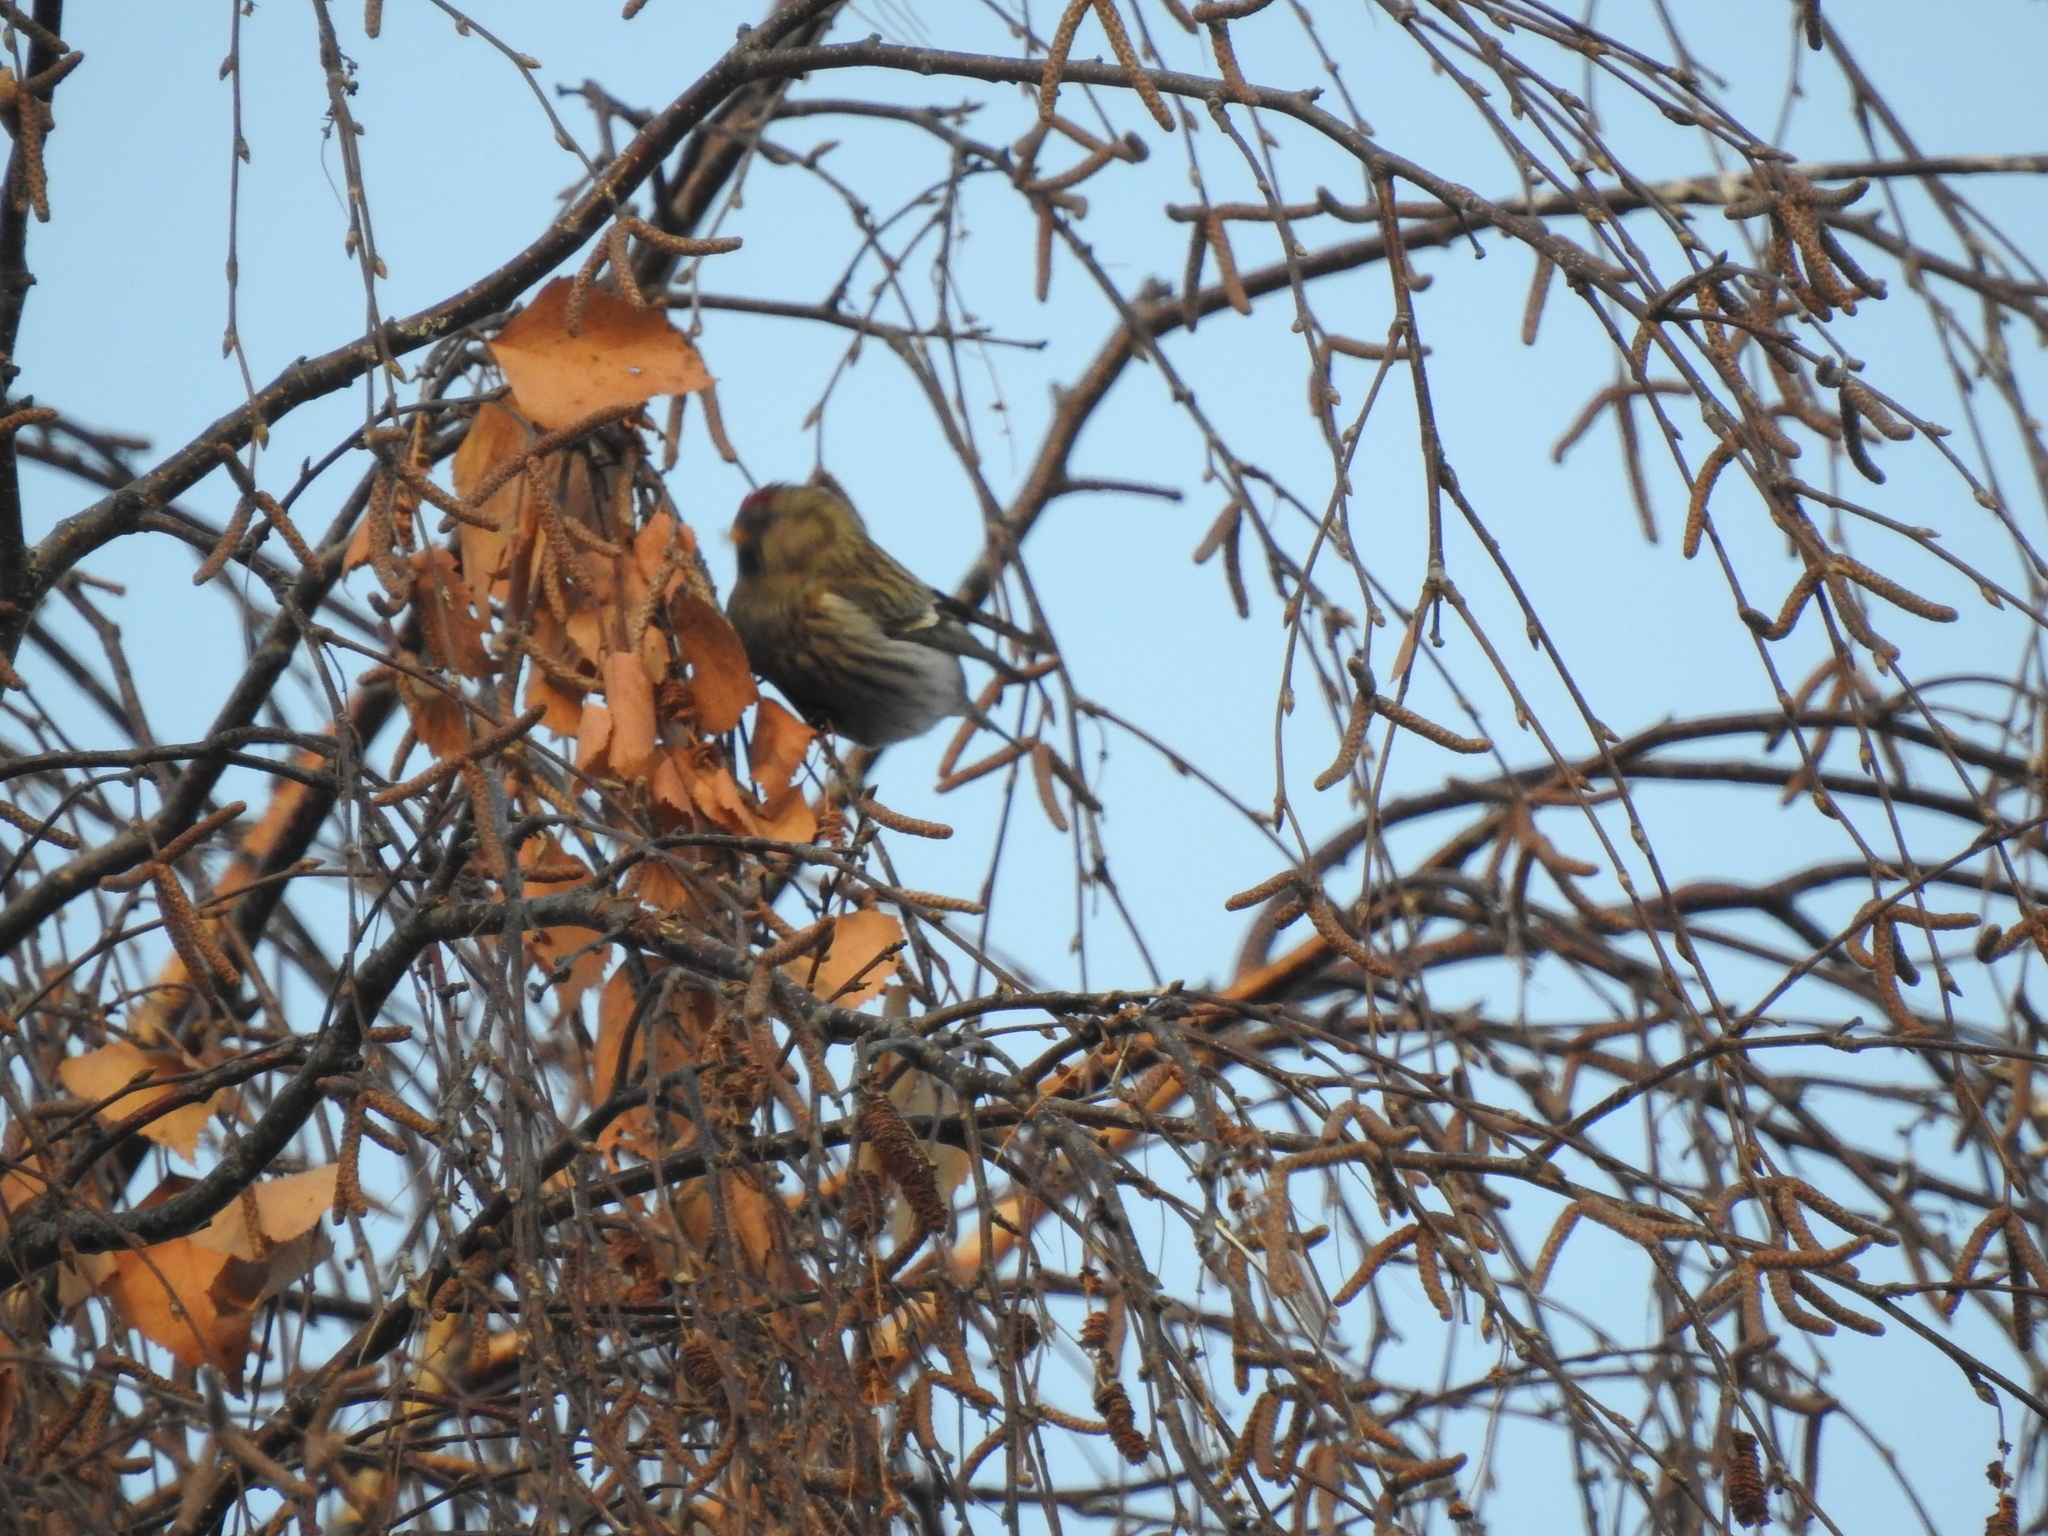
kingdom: Animalia
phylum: Chordata
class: Aves
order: Passeriformes
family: Fringillidae
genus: Acanthis
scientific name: Acanthis flammea
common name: Common redpoll
